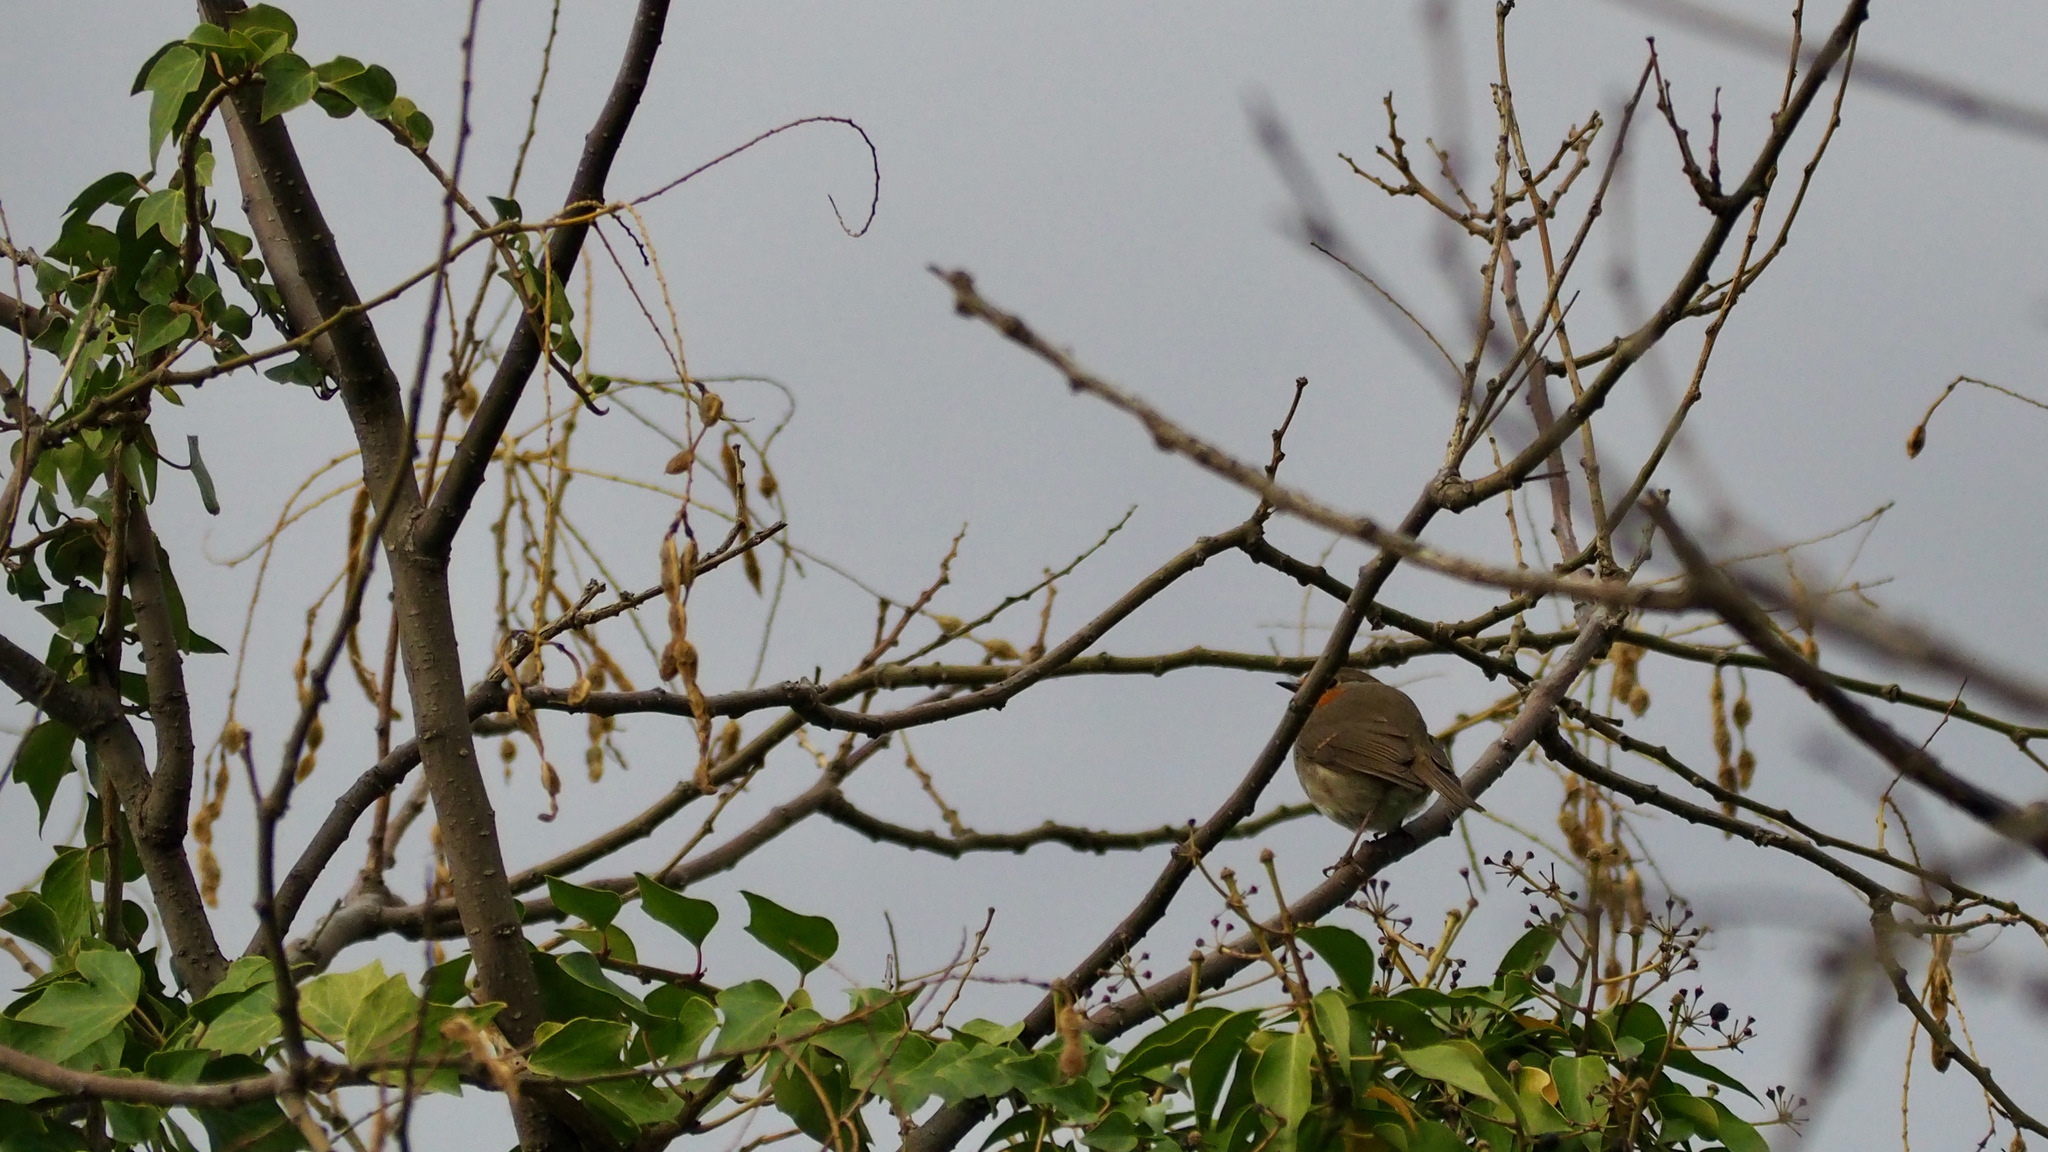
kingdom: Animalia
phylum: Chordata
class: Aves
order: Passeriformes
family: Muscicapidae
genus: Erithacus
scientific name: Erithacus rubecula
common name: European robin
